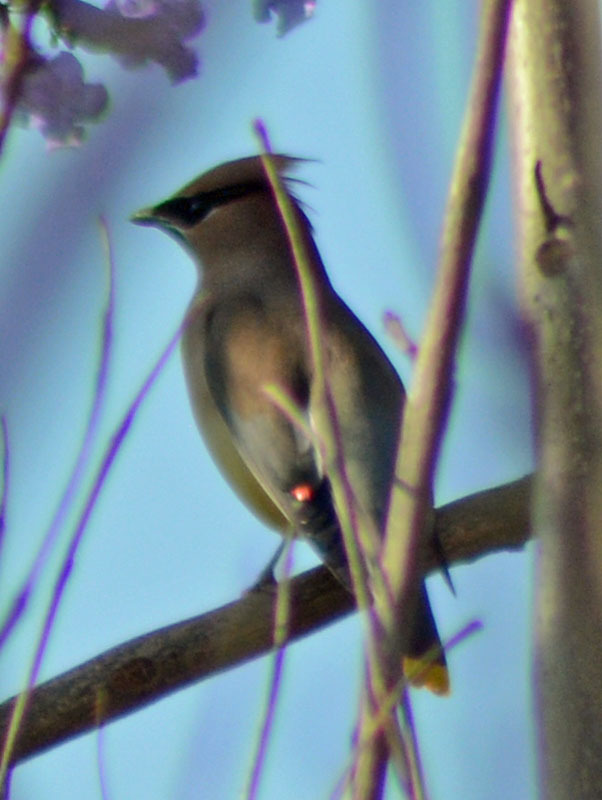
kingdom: Animalia
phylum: Chordata
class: Aves
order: Passeriformes
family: Bombycillidae
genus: Bombycilla
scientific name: Bombycilla cedrorum
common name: Cedar waxwing
